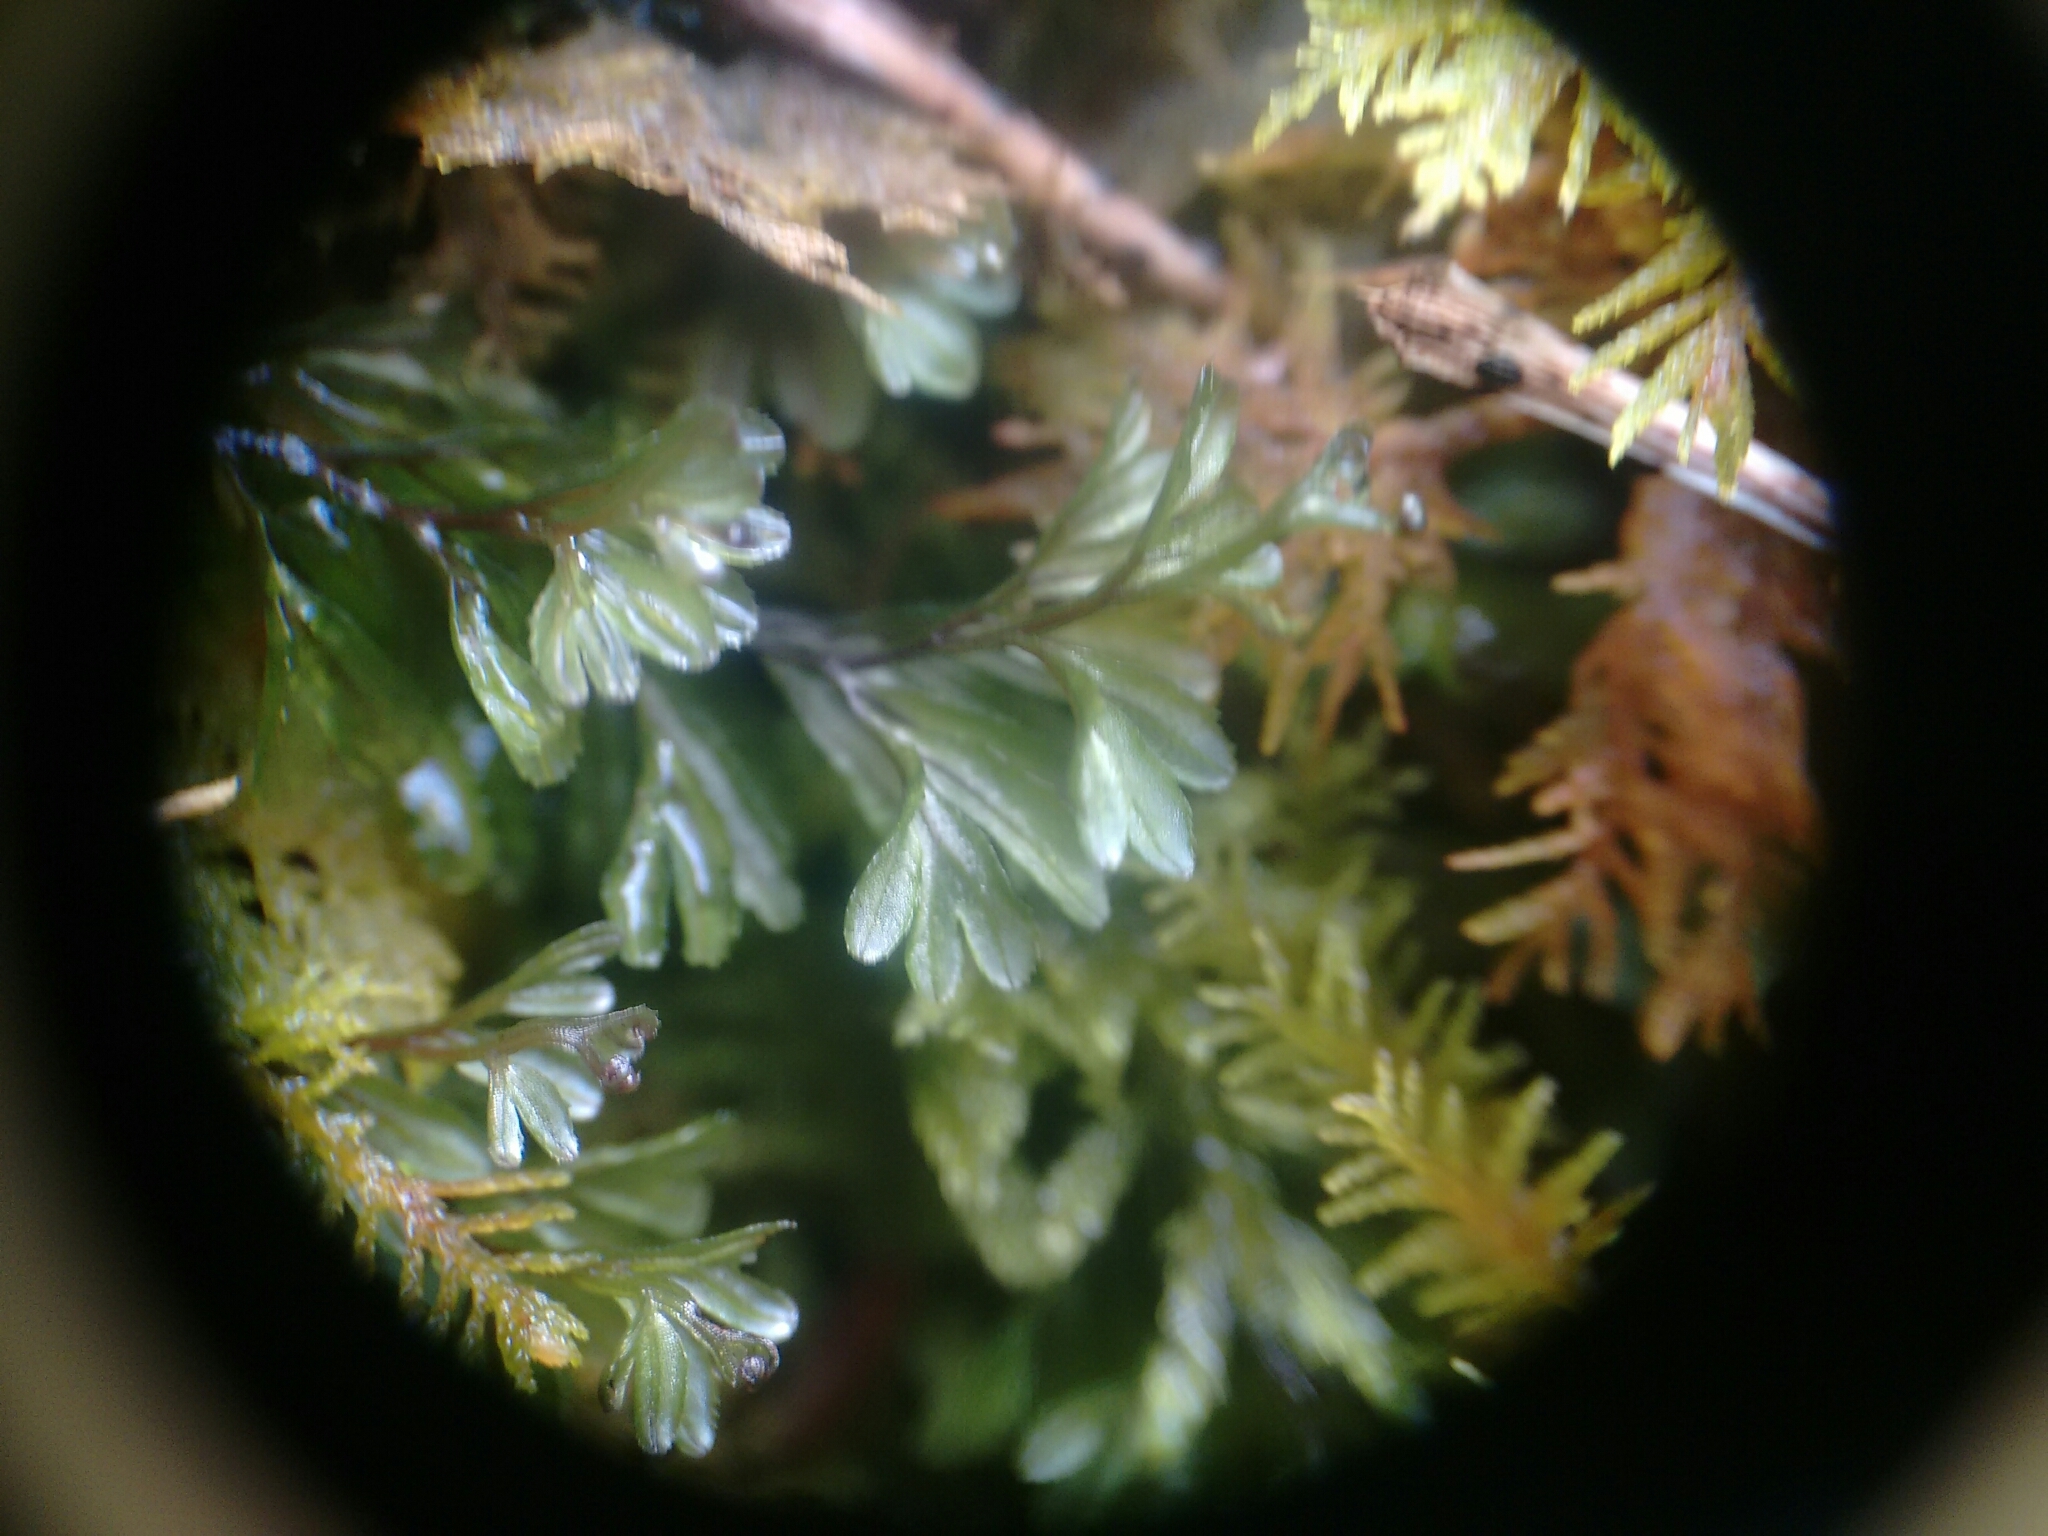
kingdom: Plantae
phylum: Tracheophyta
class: Polypodiopsida
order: Hymenophyllales
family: Hymenophyllaceae
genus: Hymenophyllum
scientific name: Hymenophyllum wilsonii
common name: Wilson's filmy fern
